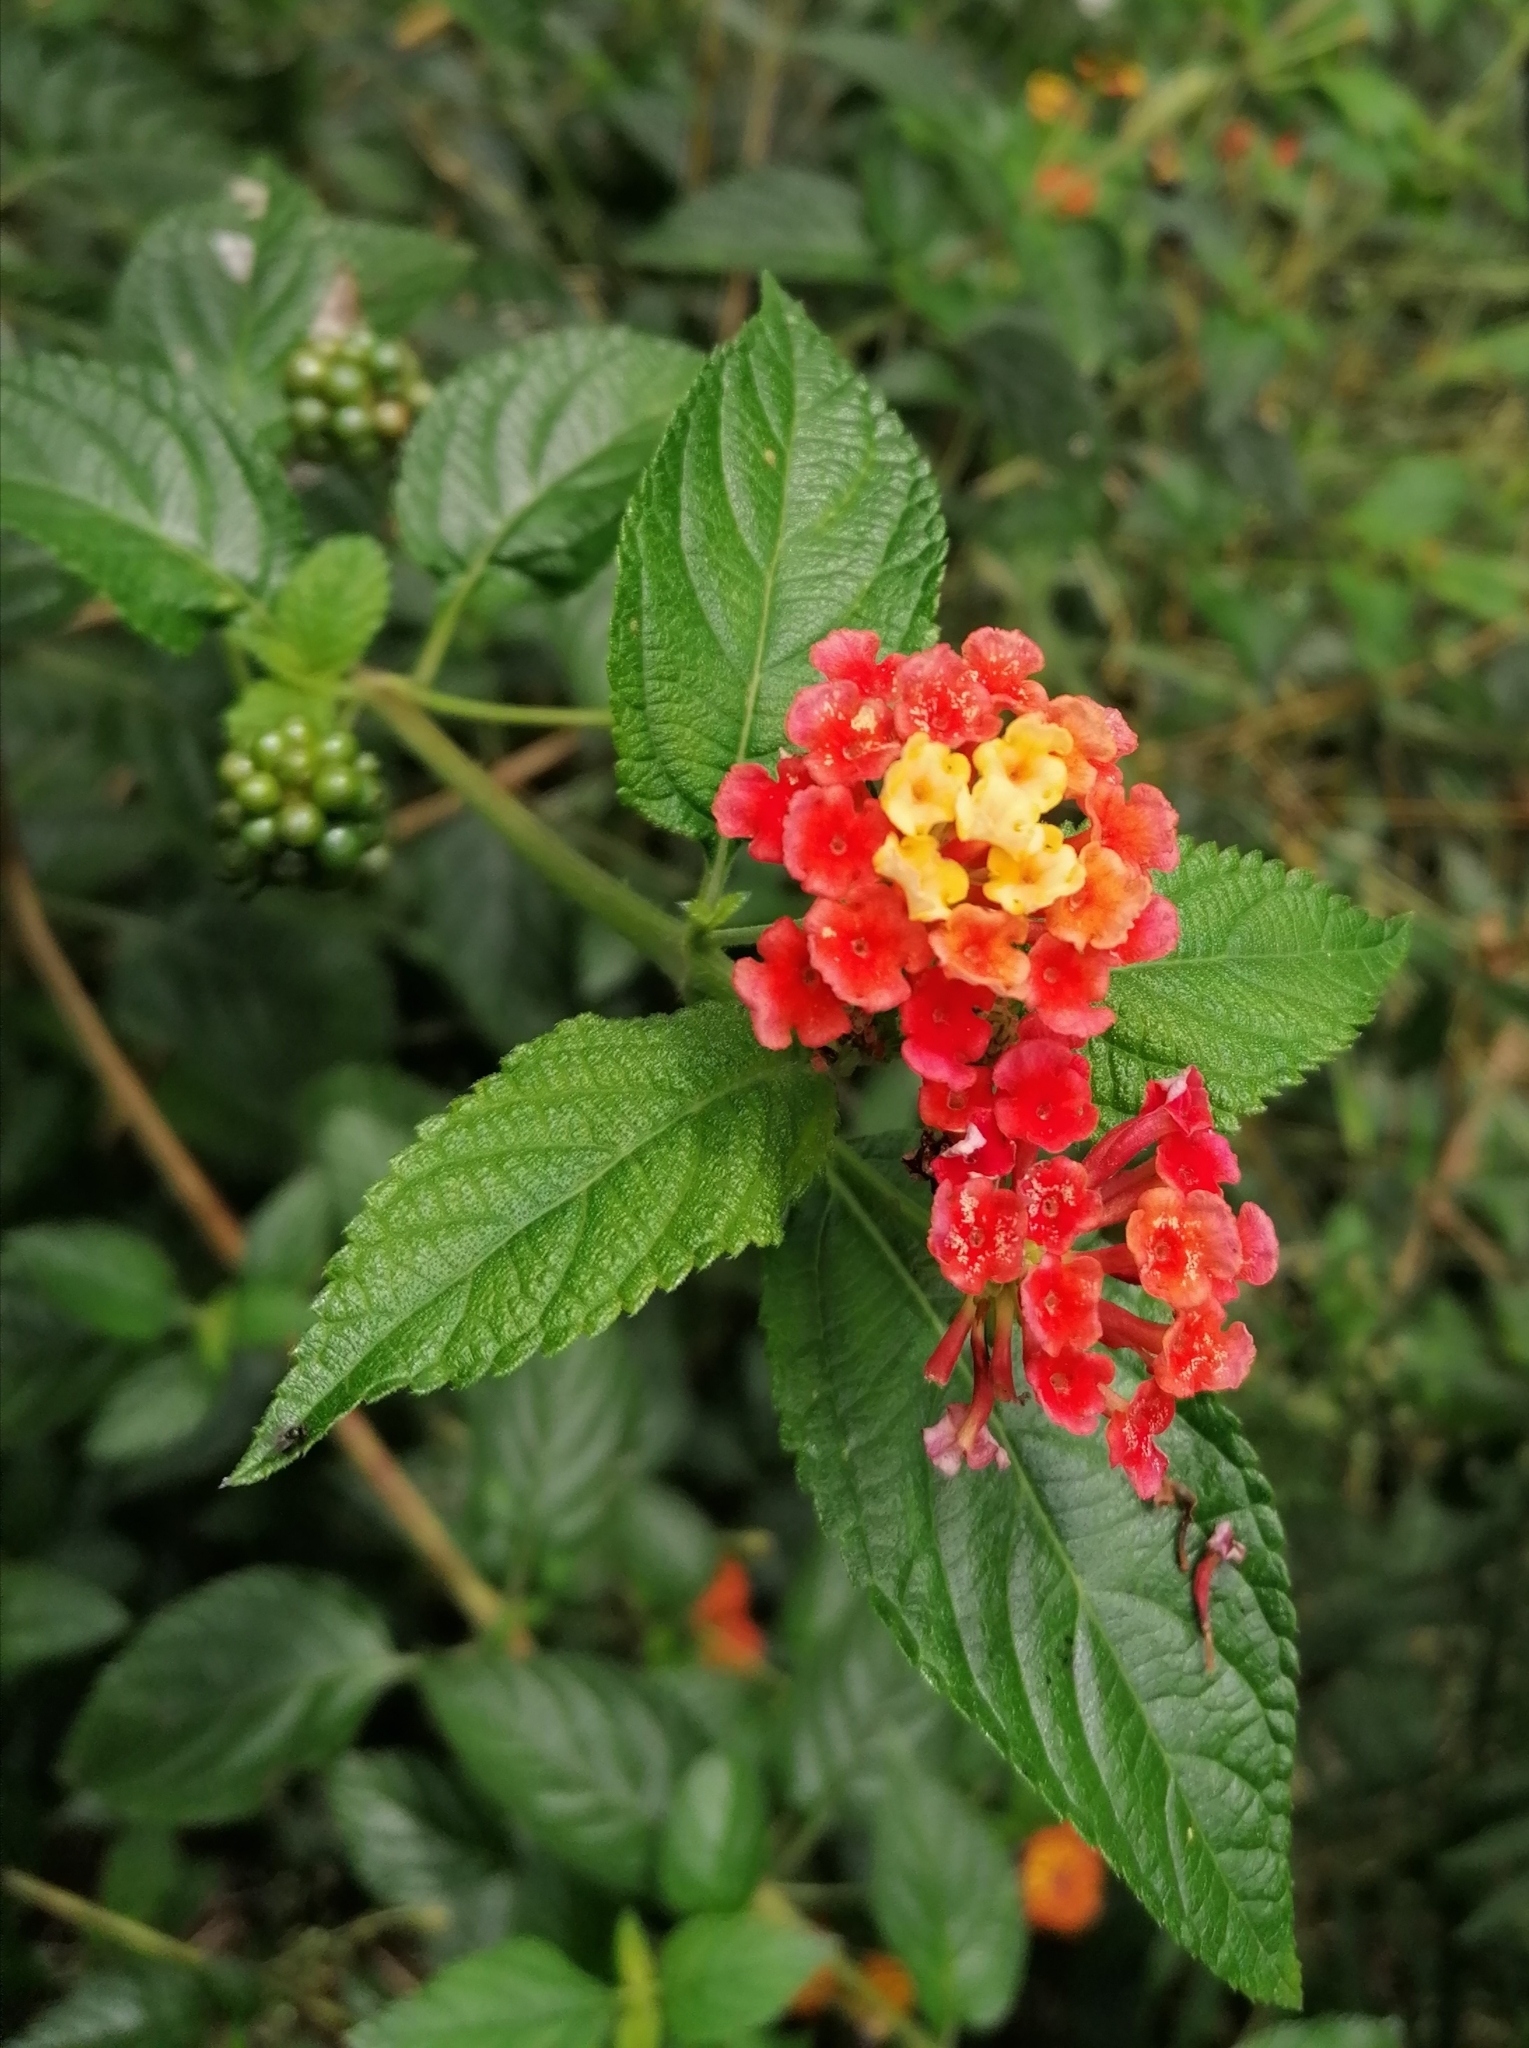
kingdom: Plantae
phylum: Tracheophyta
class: Magnoliopsida
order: Lamiales
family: Verbenaceae
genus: Lantana
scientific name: Lantana camara
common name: Lantana
